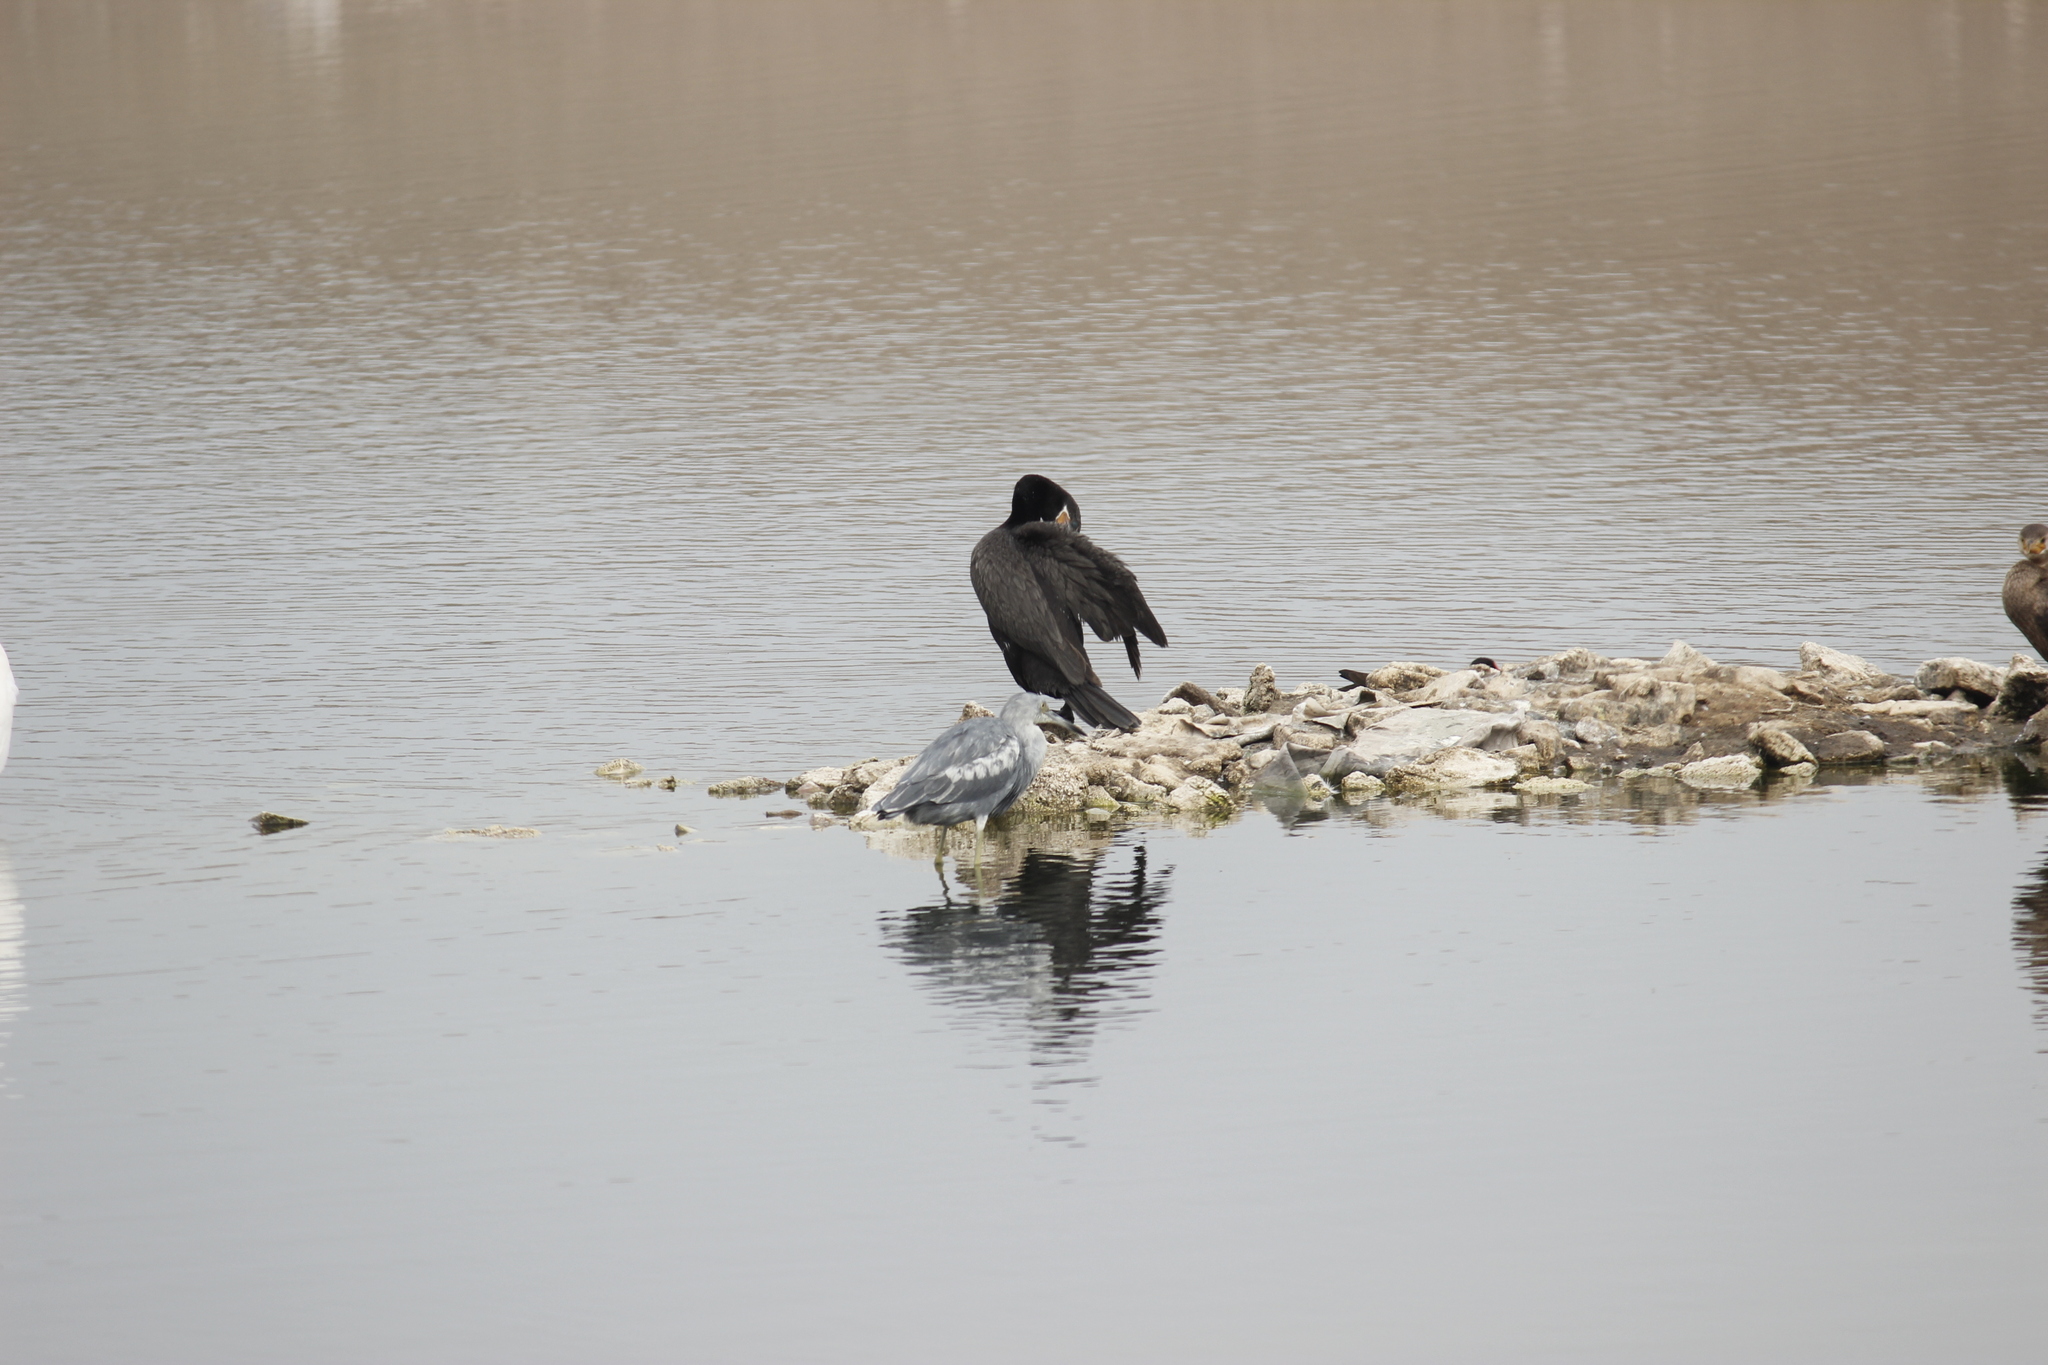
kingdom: Animalia
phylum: Chordata
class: Aves
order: Pelecaniformes
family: Ardeidae
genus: Egretta
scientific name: Egretta caerulea
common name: Little blue heron
